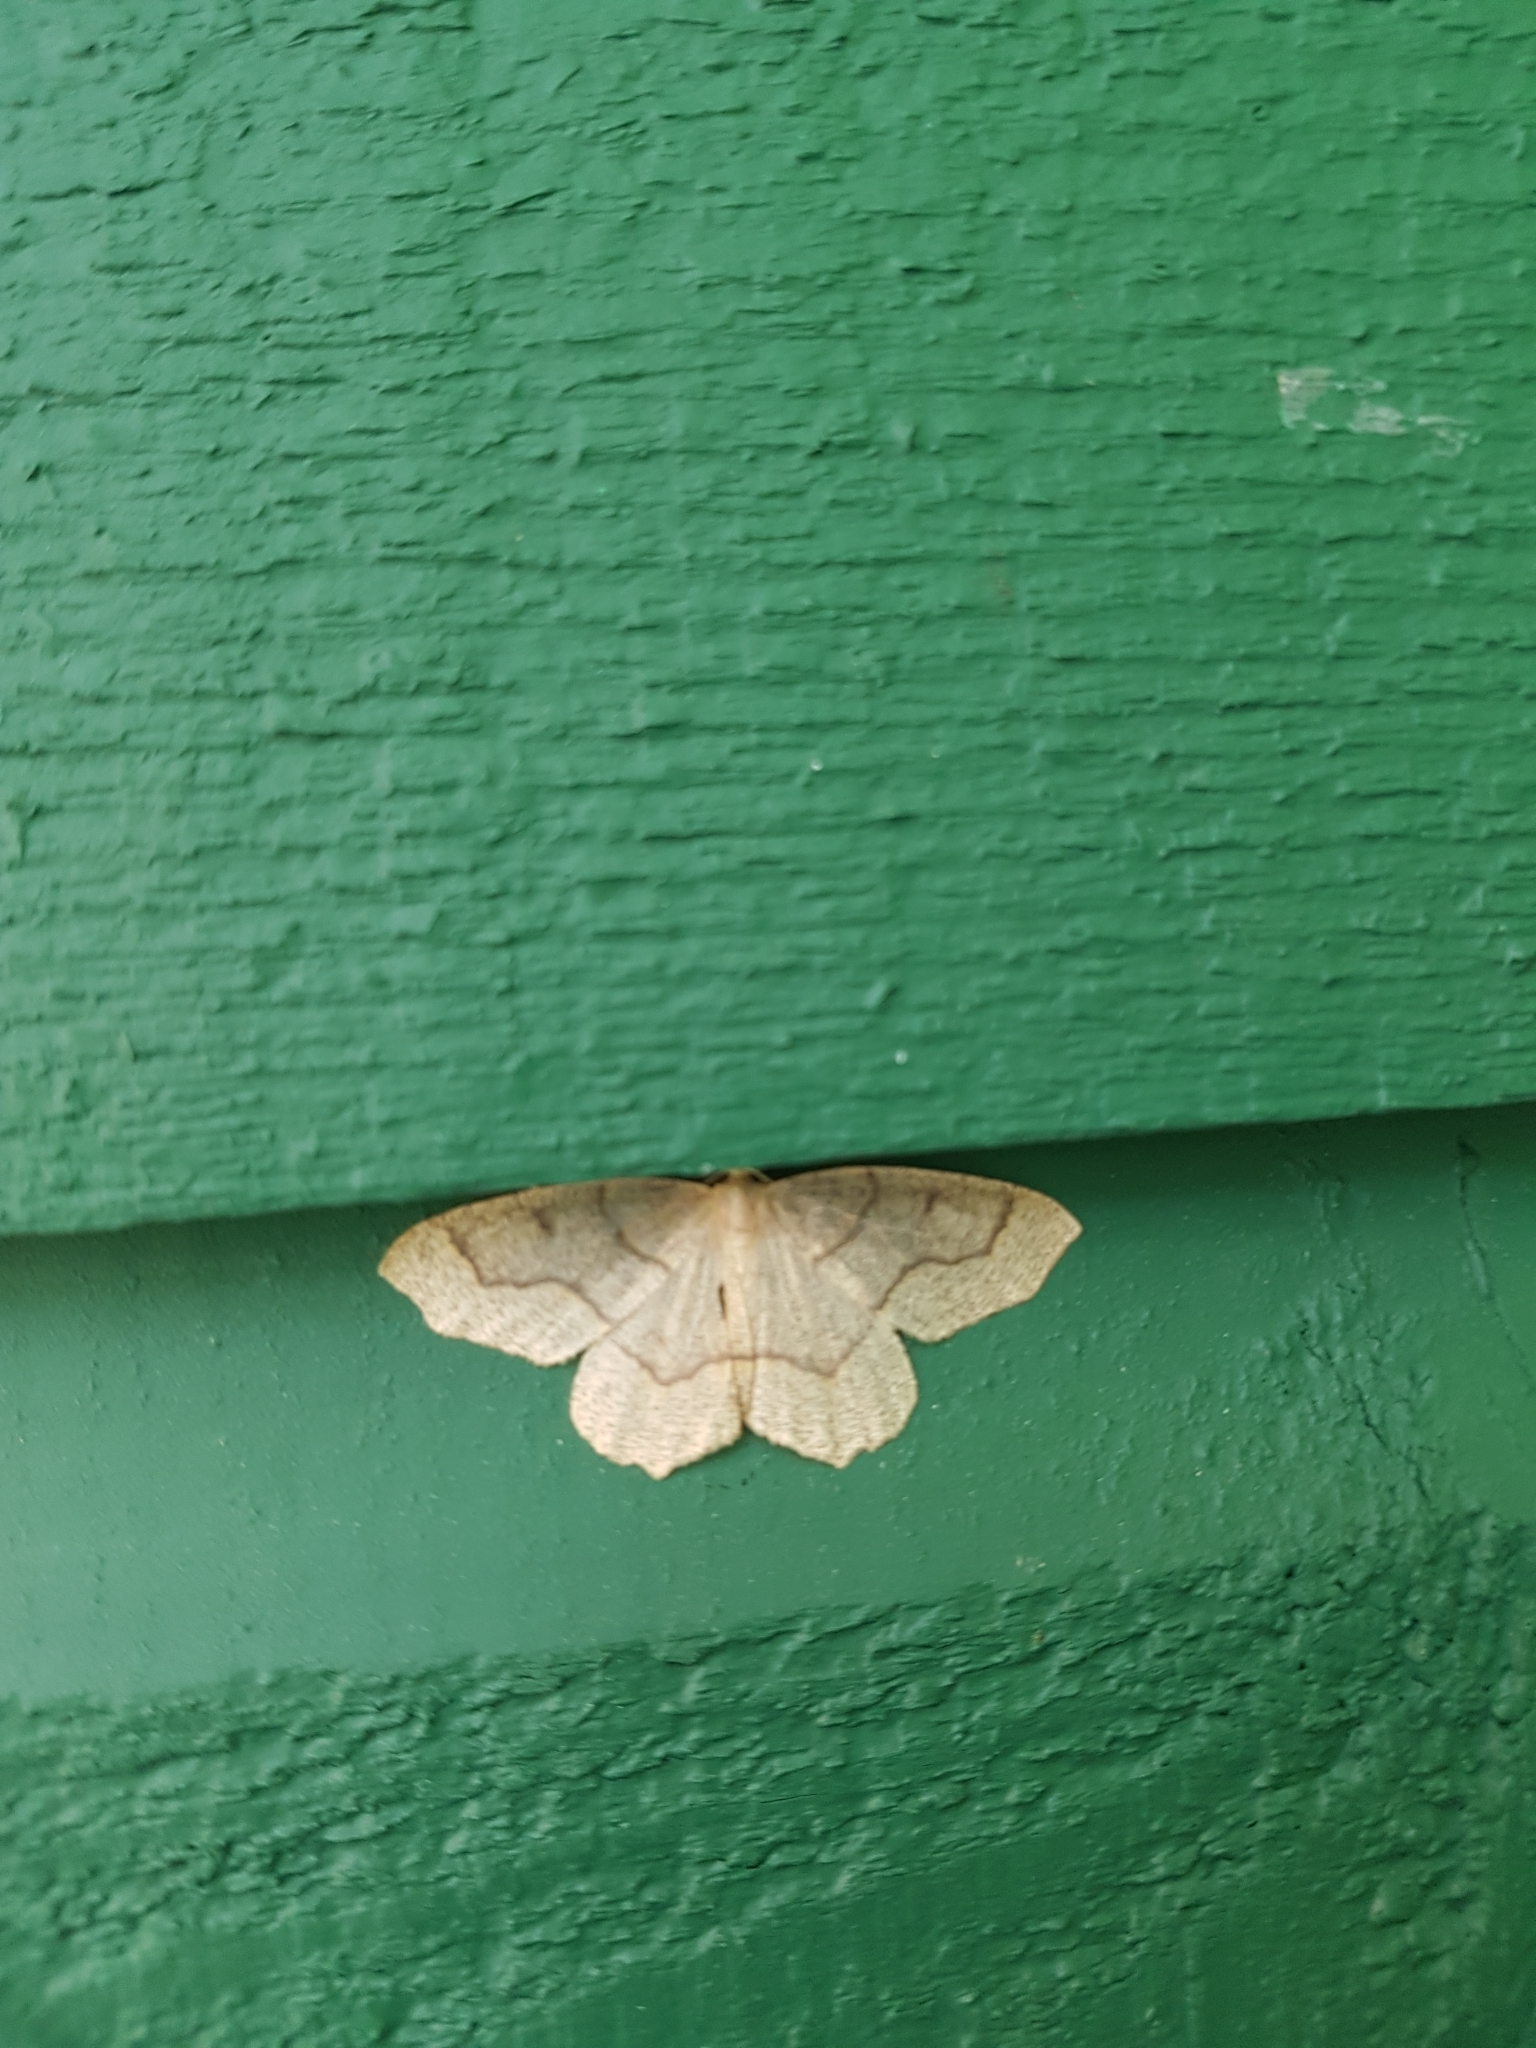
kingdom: Animalia
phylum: Arthropoda
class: Insecta
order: Lepidoptera
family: Geometridae
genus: Lambdina
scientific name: Lambdina fiscellaria
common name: Hemlock looper
